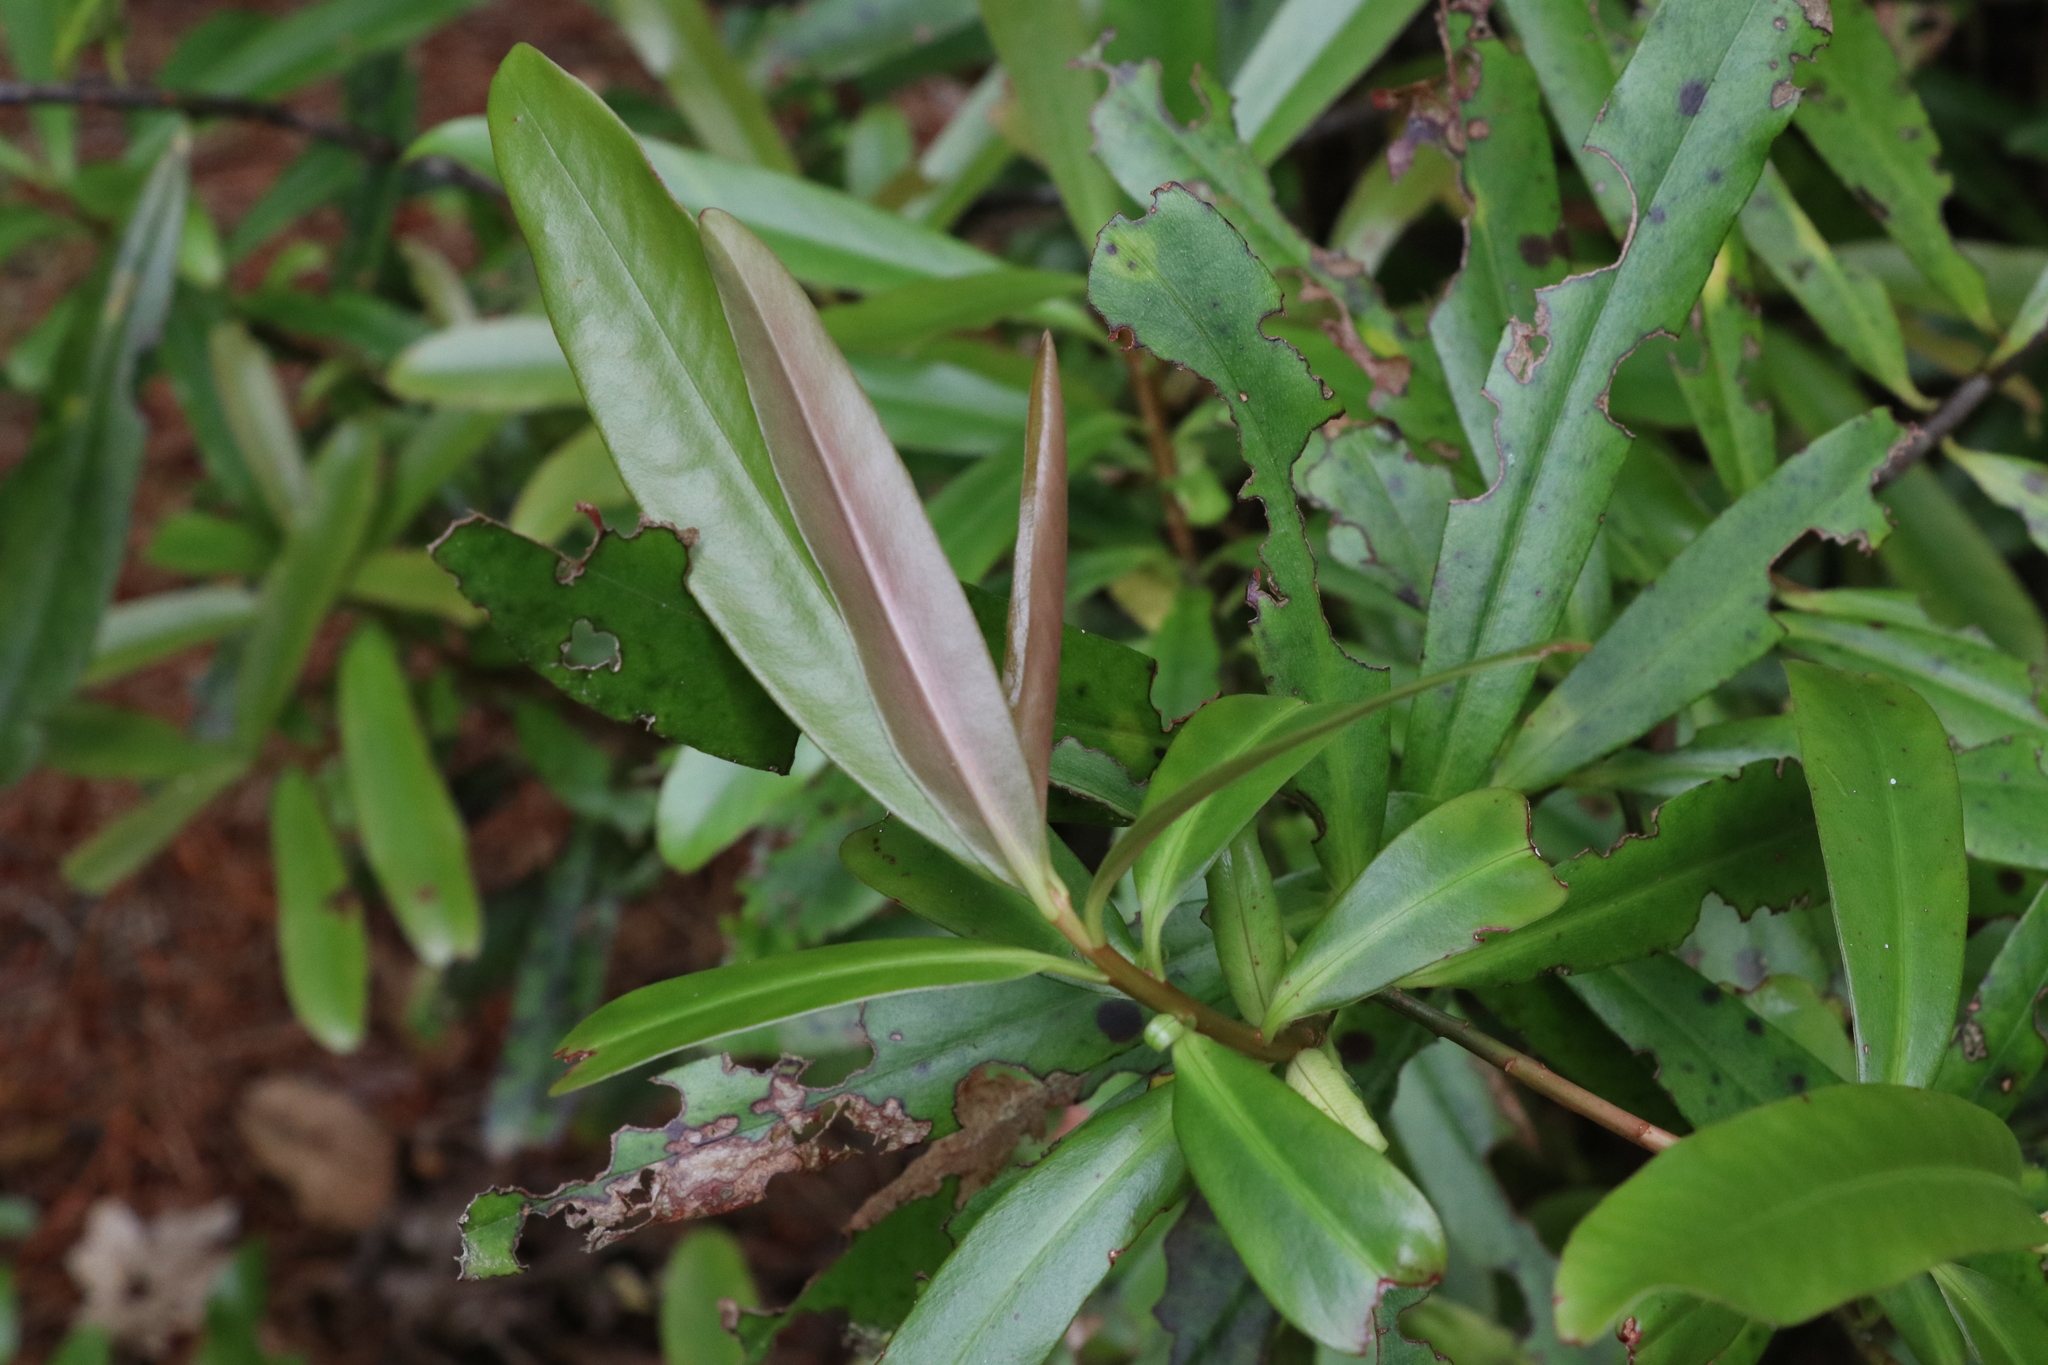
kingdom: Plantae
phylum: Tracheophyta
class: Magnoliopsida
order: Ericales
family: Primulaceae
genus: Myrsine
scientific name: Myrsine salicina
